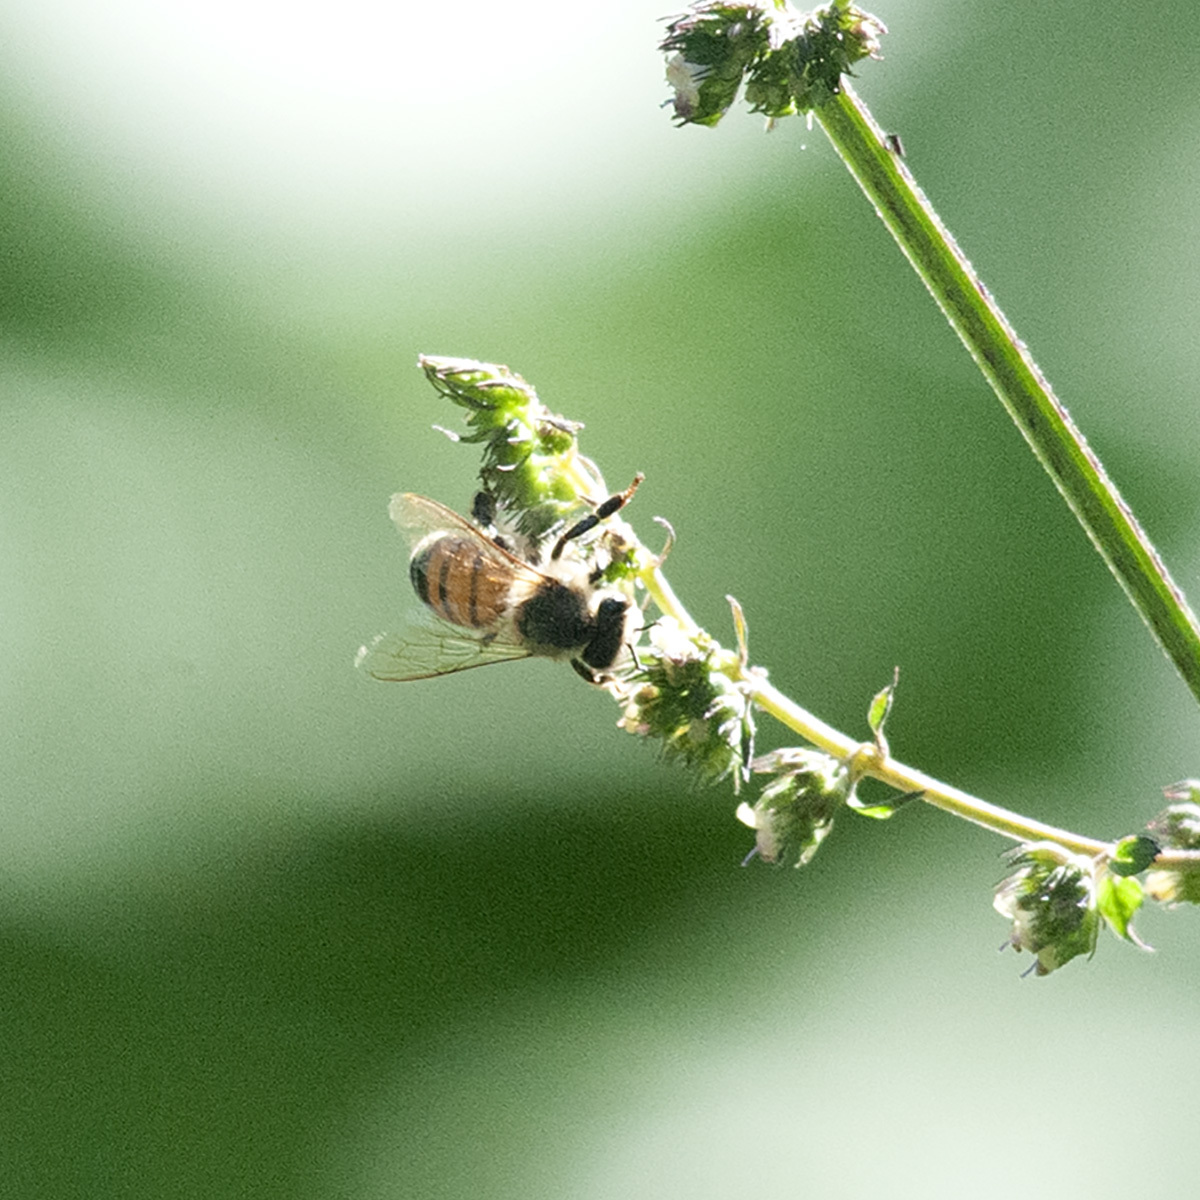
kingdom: Animalia
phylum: Arthropoda
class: Insecta
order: Hymenoptera
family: Apidae
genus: Apis
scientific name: Apis mellifera
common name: Honey bee
